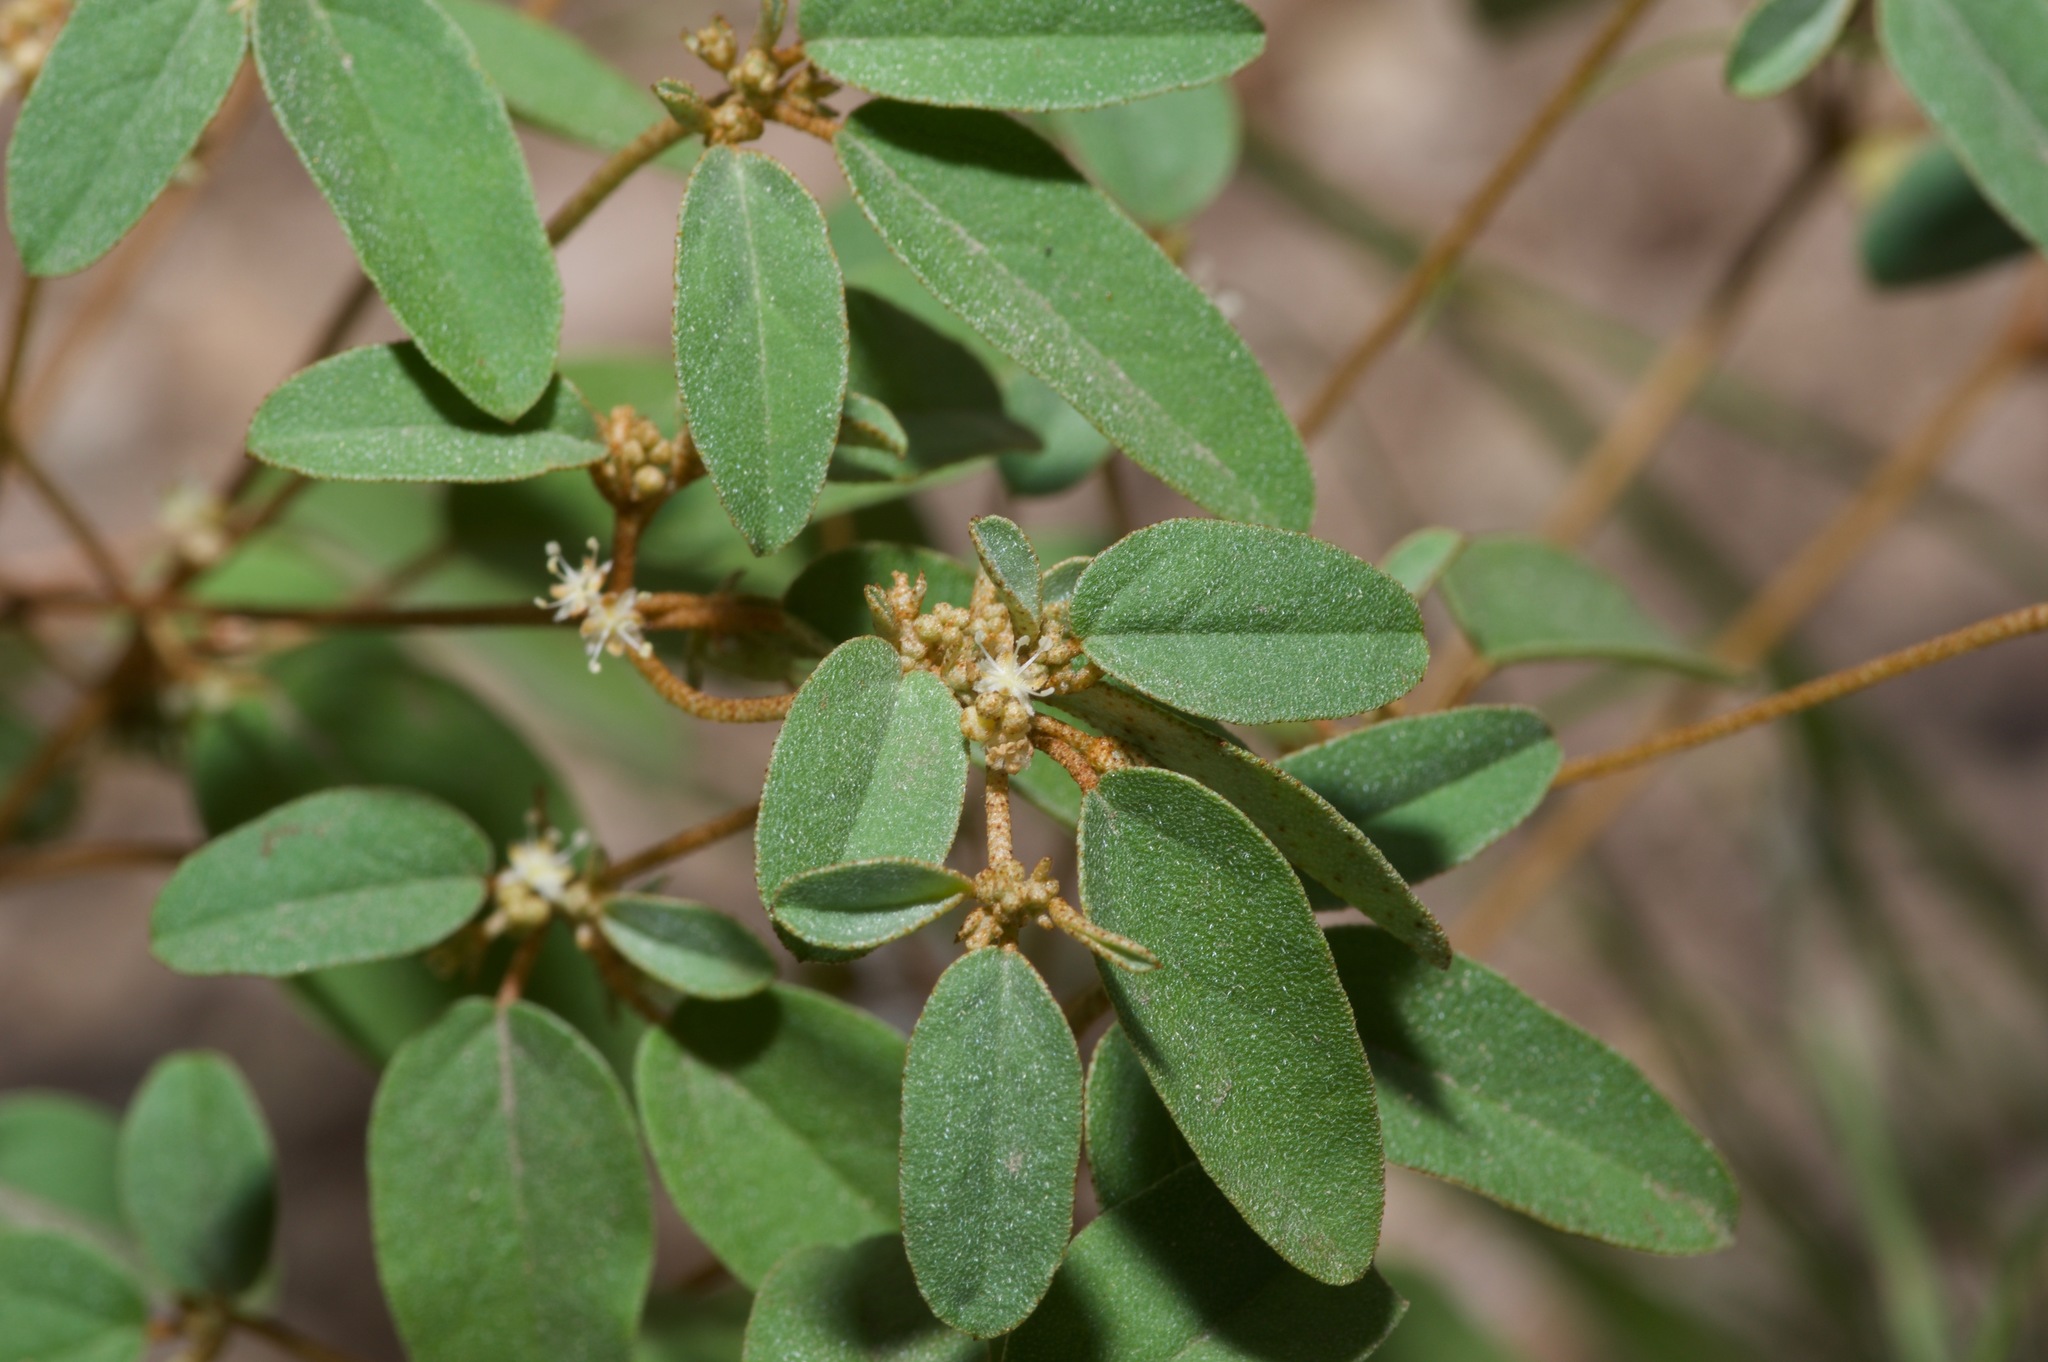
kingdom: Plantae
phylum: Tracheophyta
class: Magnoliopsida
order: Malpighiales
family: Euphorbiaceae
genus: Croton
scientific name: Croton monanthogynus
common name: One-seed croton
